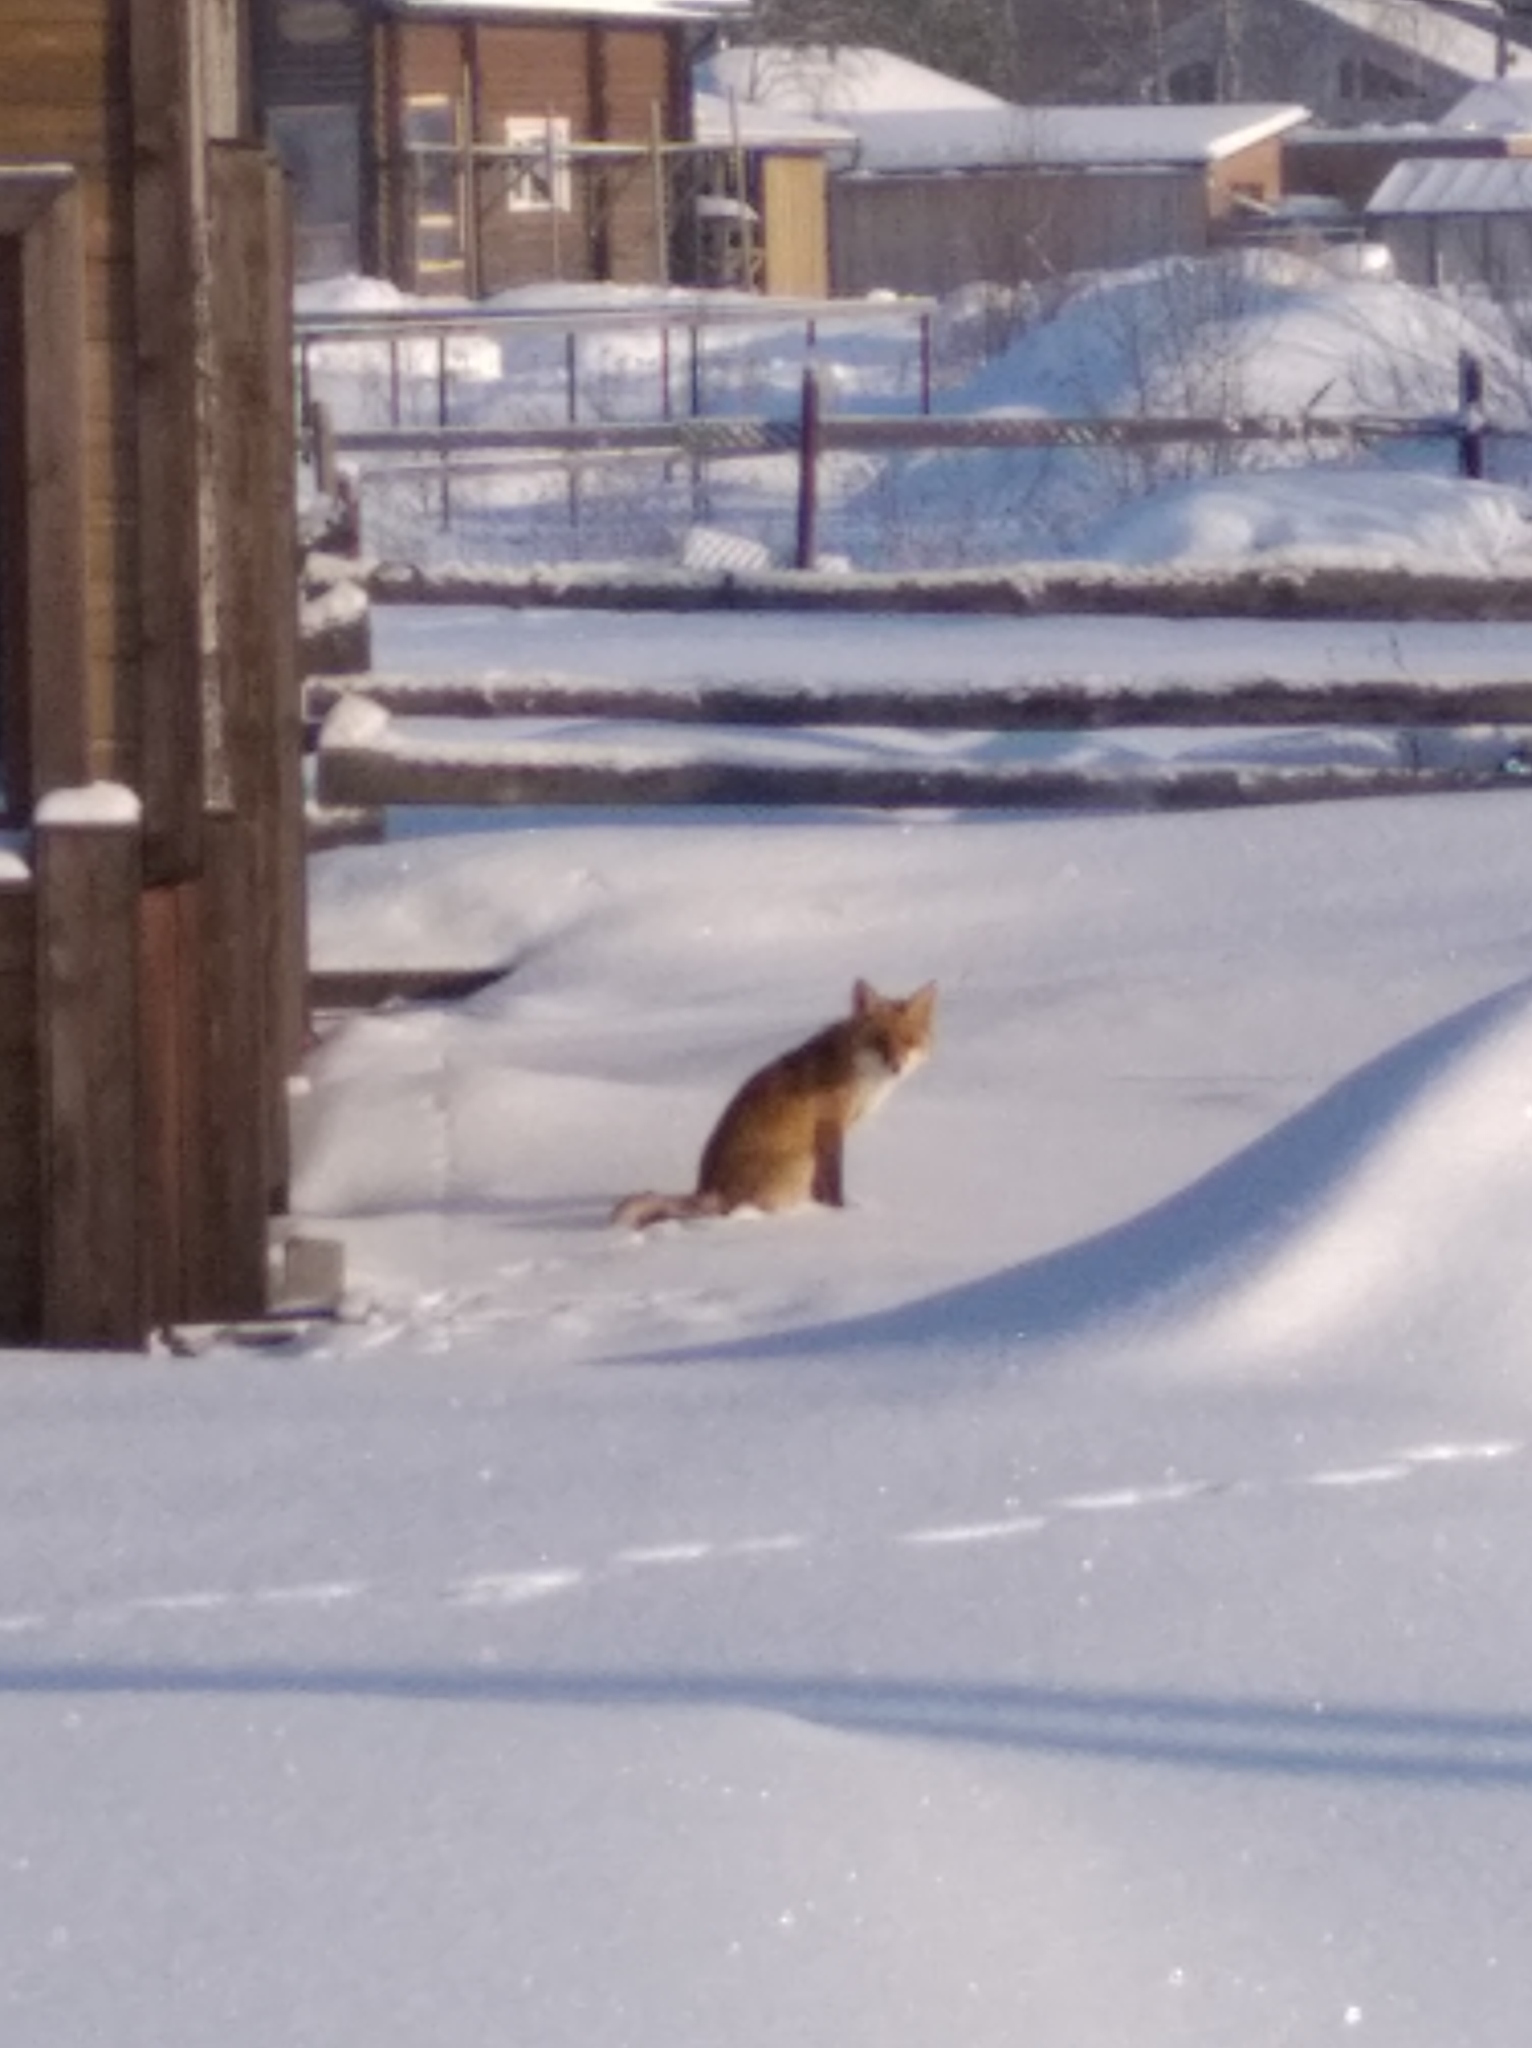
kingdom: Animalia
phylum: Chordata
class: Mammalia
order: Carnivora
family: Canidae
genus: Vulpes
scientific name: Vulpes vulpes
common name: Red fox
